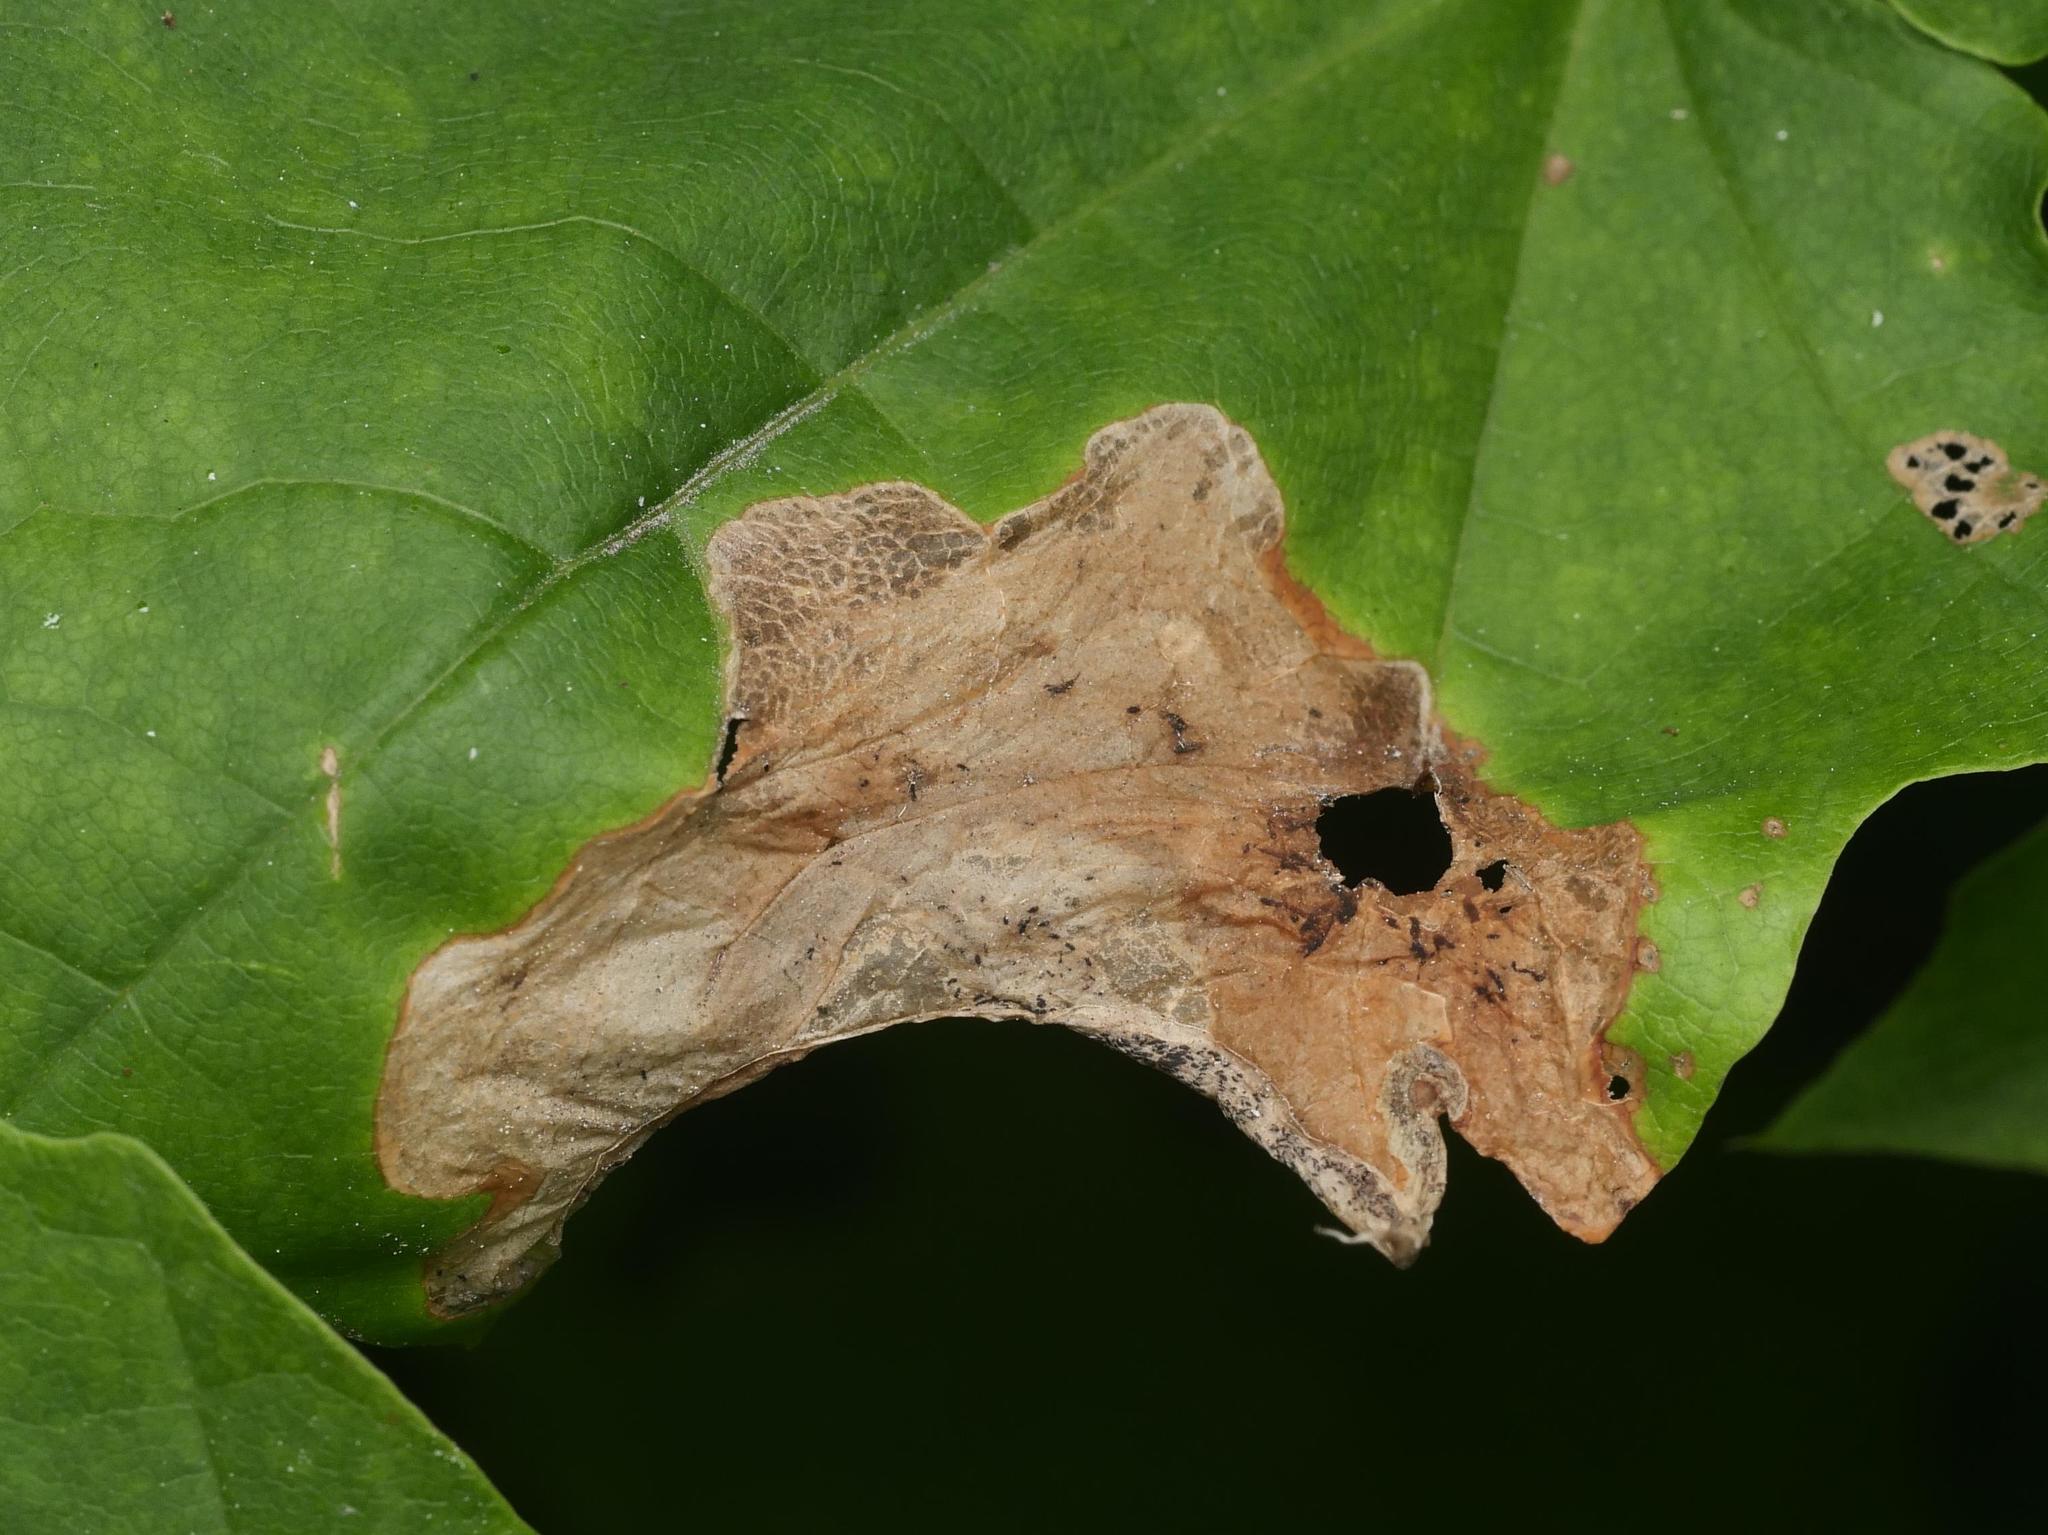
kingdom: Animalia
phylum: Arthropoda
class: Insecta
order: Hymenoptera
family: Tenthredinidae
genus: Hinatara
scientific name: Hinatara recta
